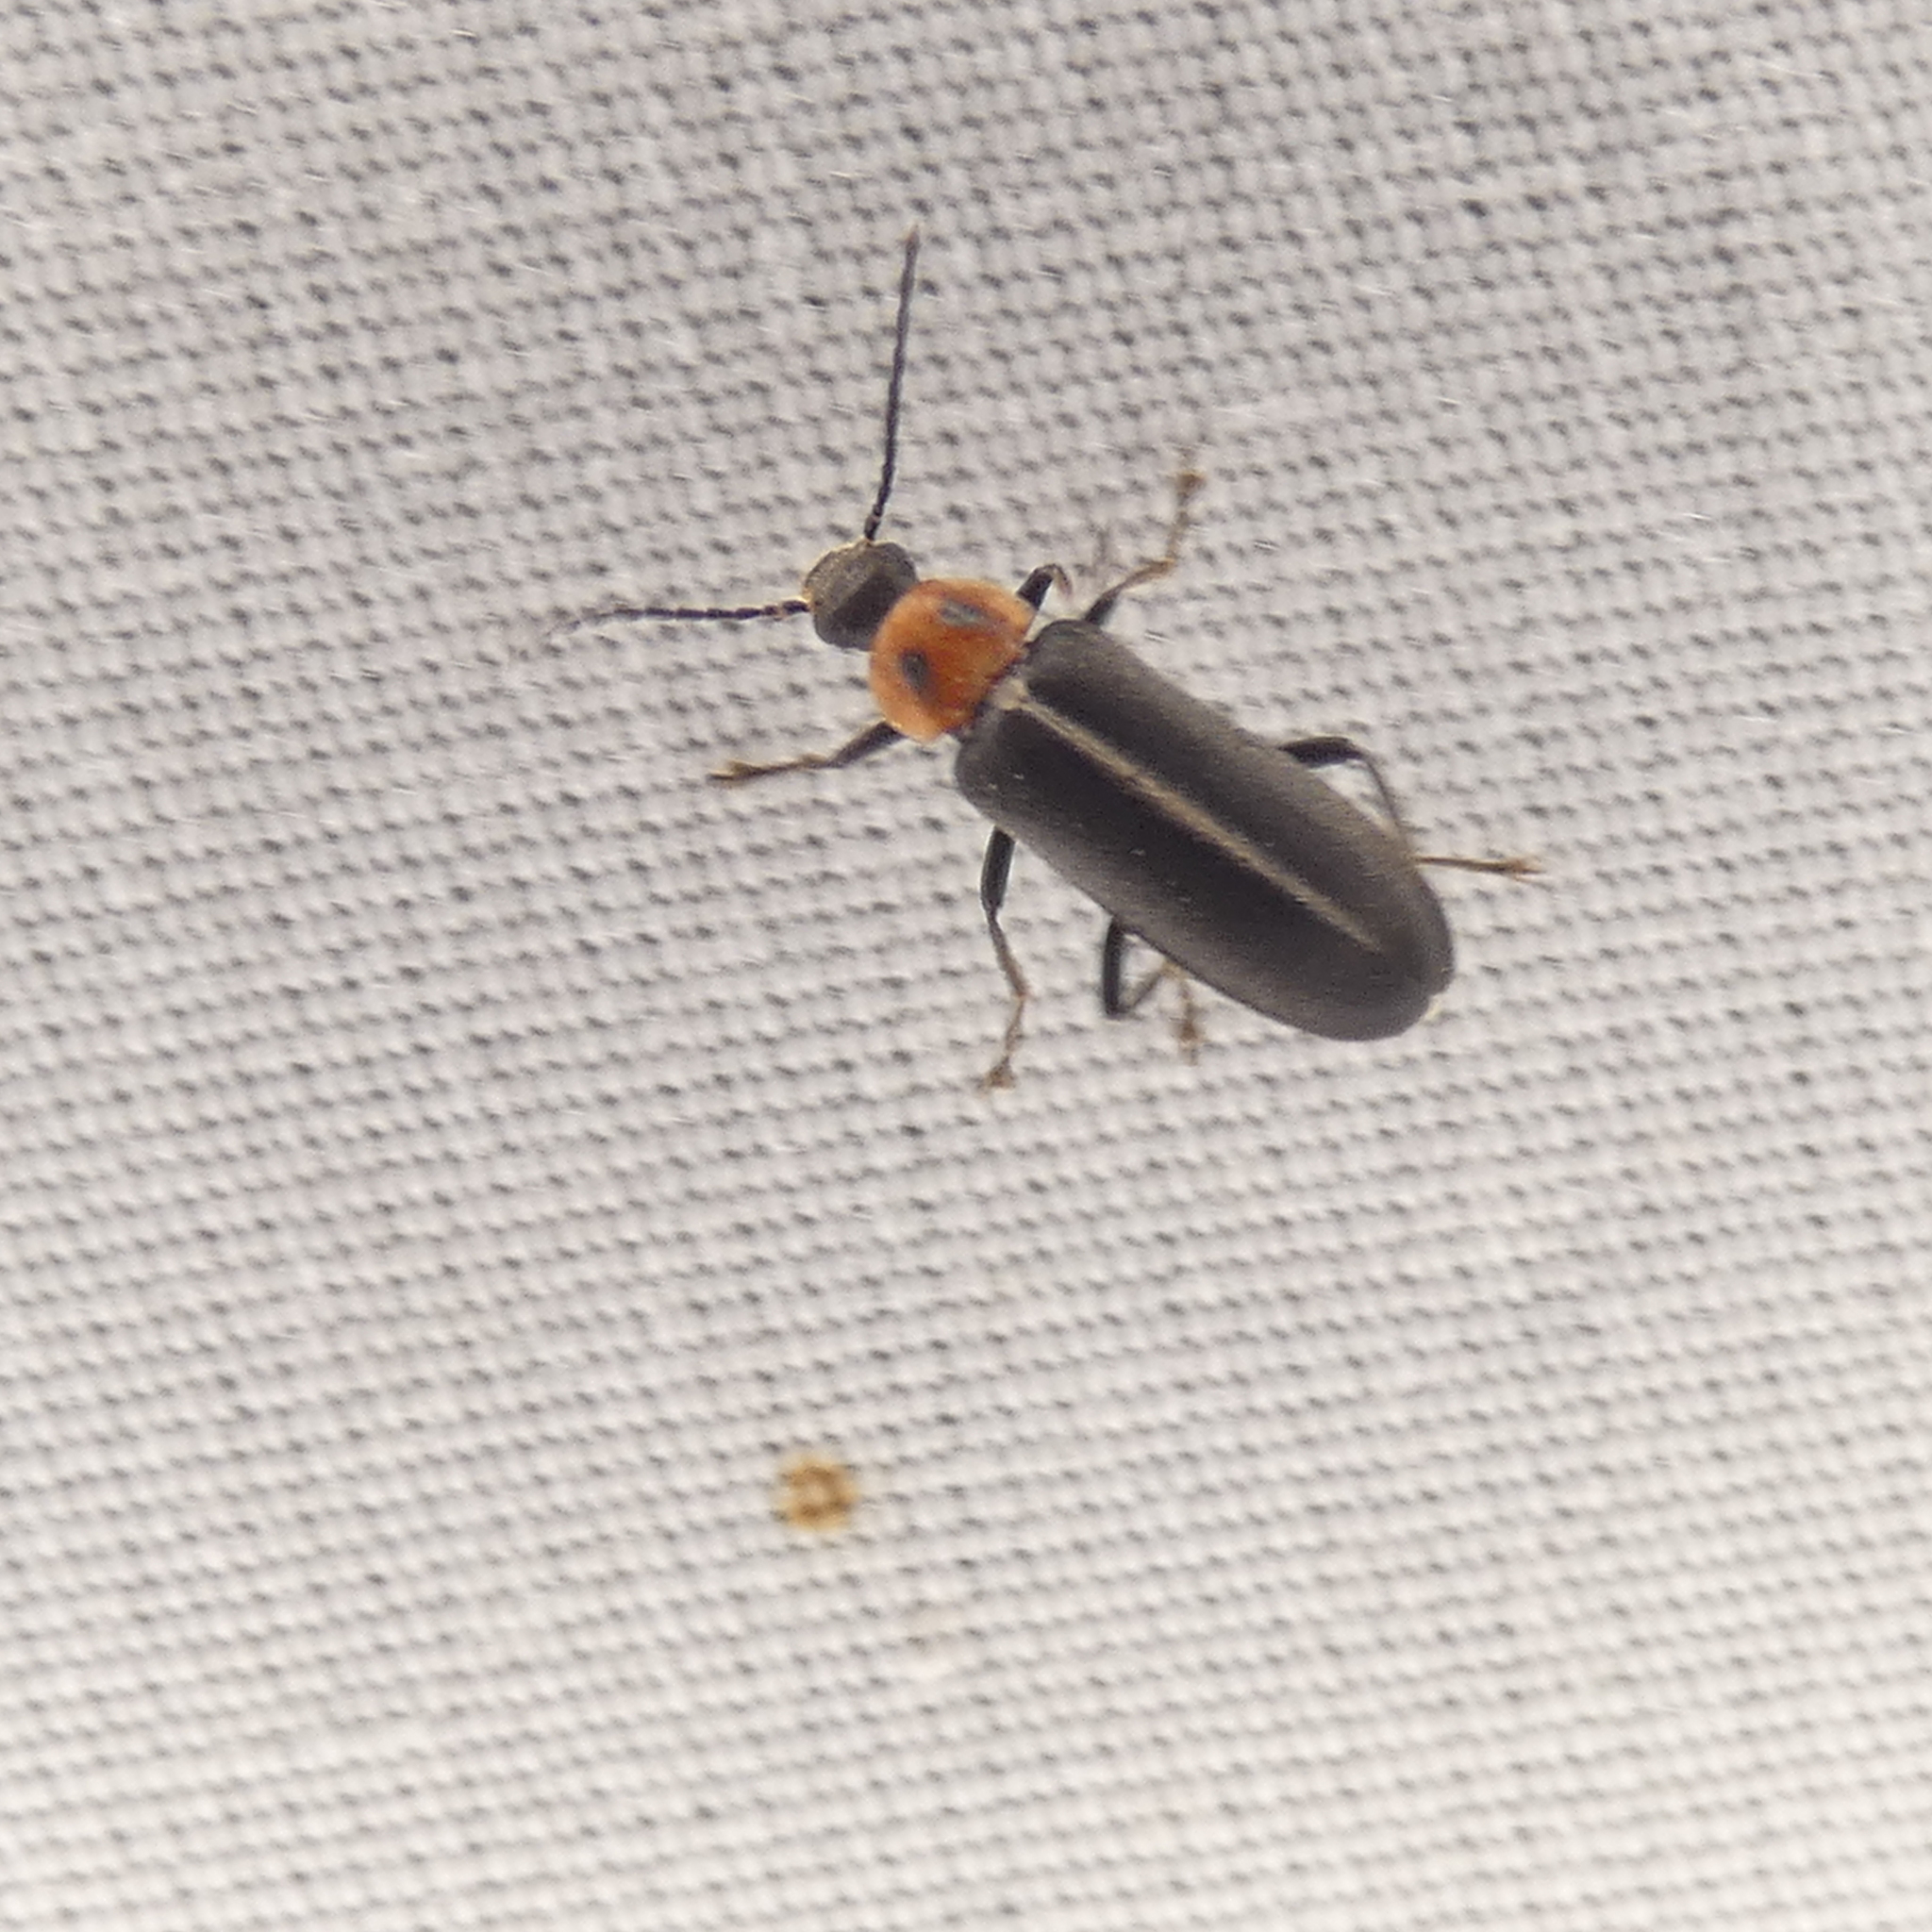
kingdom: Animalia
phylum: Arthropoda
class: Insecta
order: Coleoptera
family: Melandryidae
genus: Osphya
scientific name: Osphya varians
